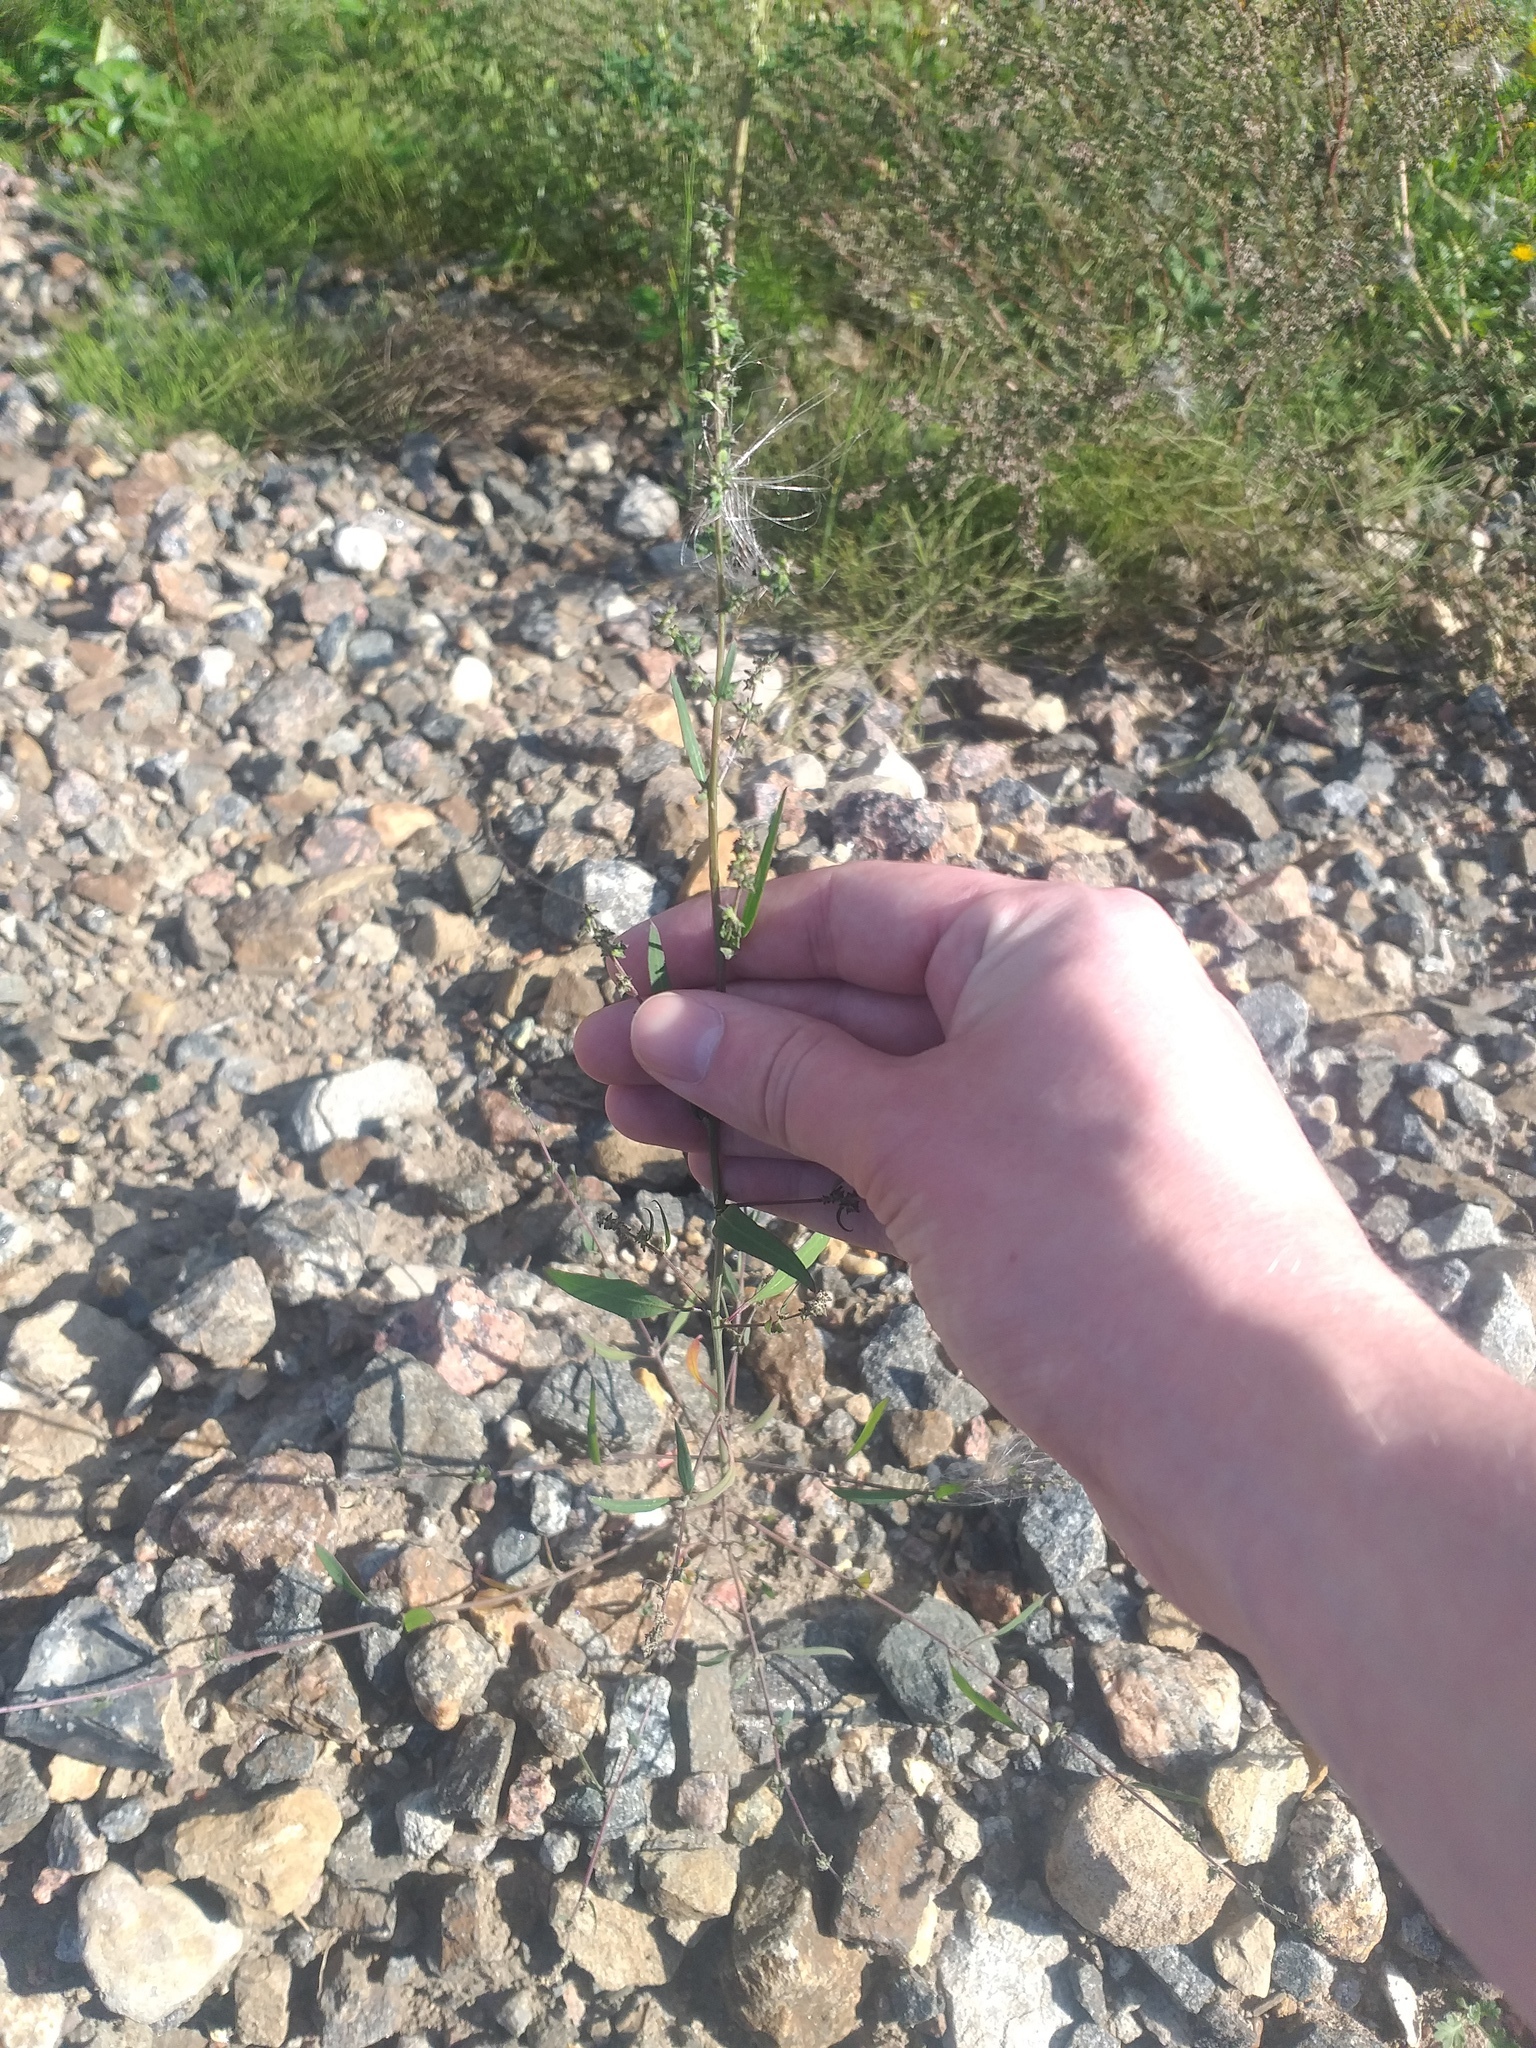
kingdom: Plantae
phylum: Tracheophyta
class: Magnoliopsida
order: Caryophyllales
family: Amaranthaceae
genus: Atriplex
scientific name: Atriplex patula
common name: Common orache
